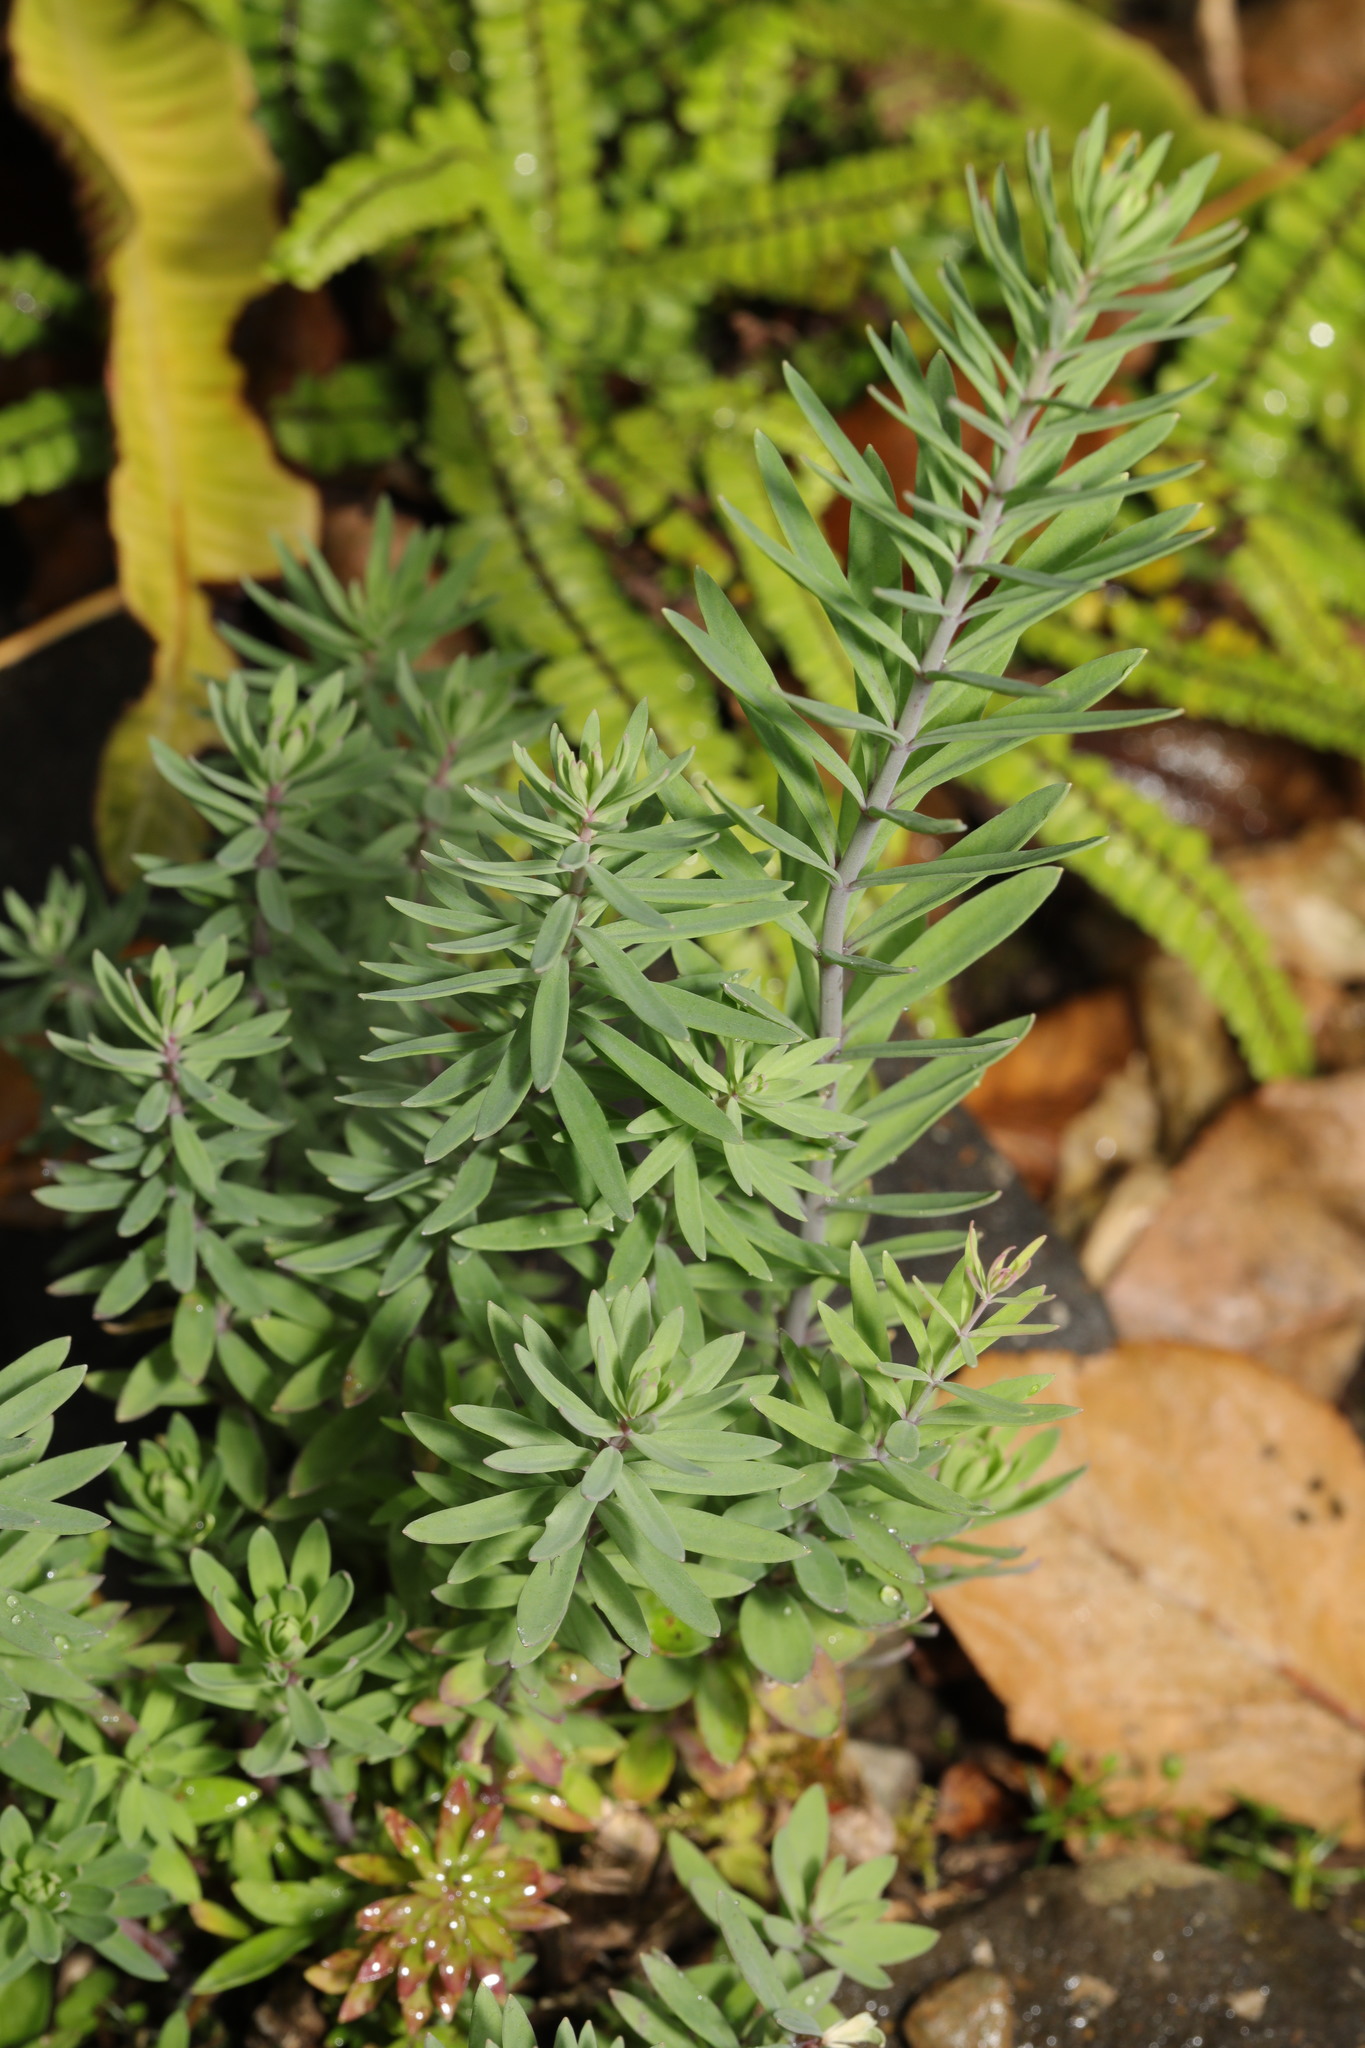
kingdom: Plantae
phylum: Tracheophyta
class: Magnoliopsida
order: Lamiales
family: Plantaginaceae
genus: Linaria
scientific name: Linaria purpurea
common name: Purple toadflax
